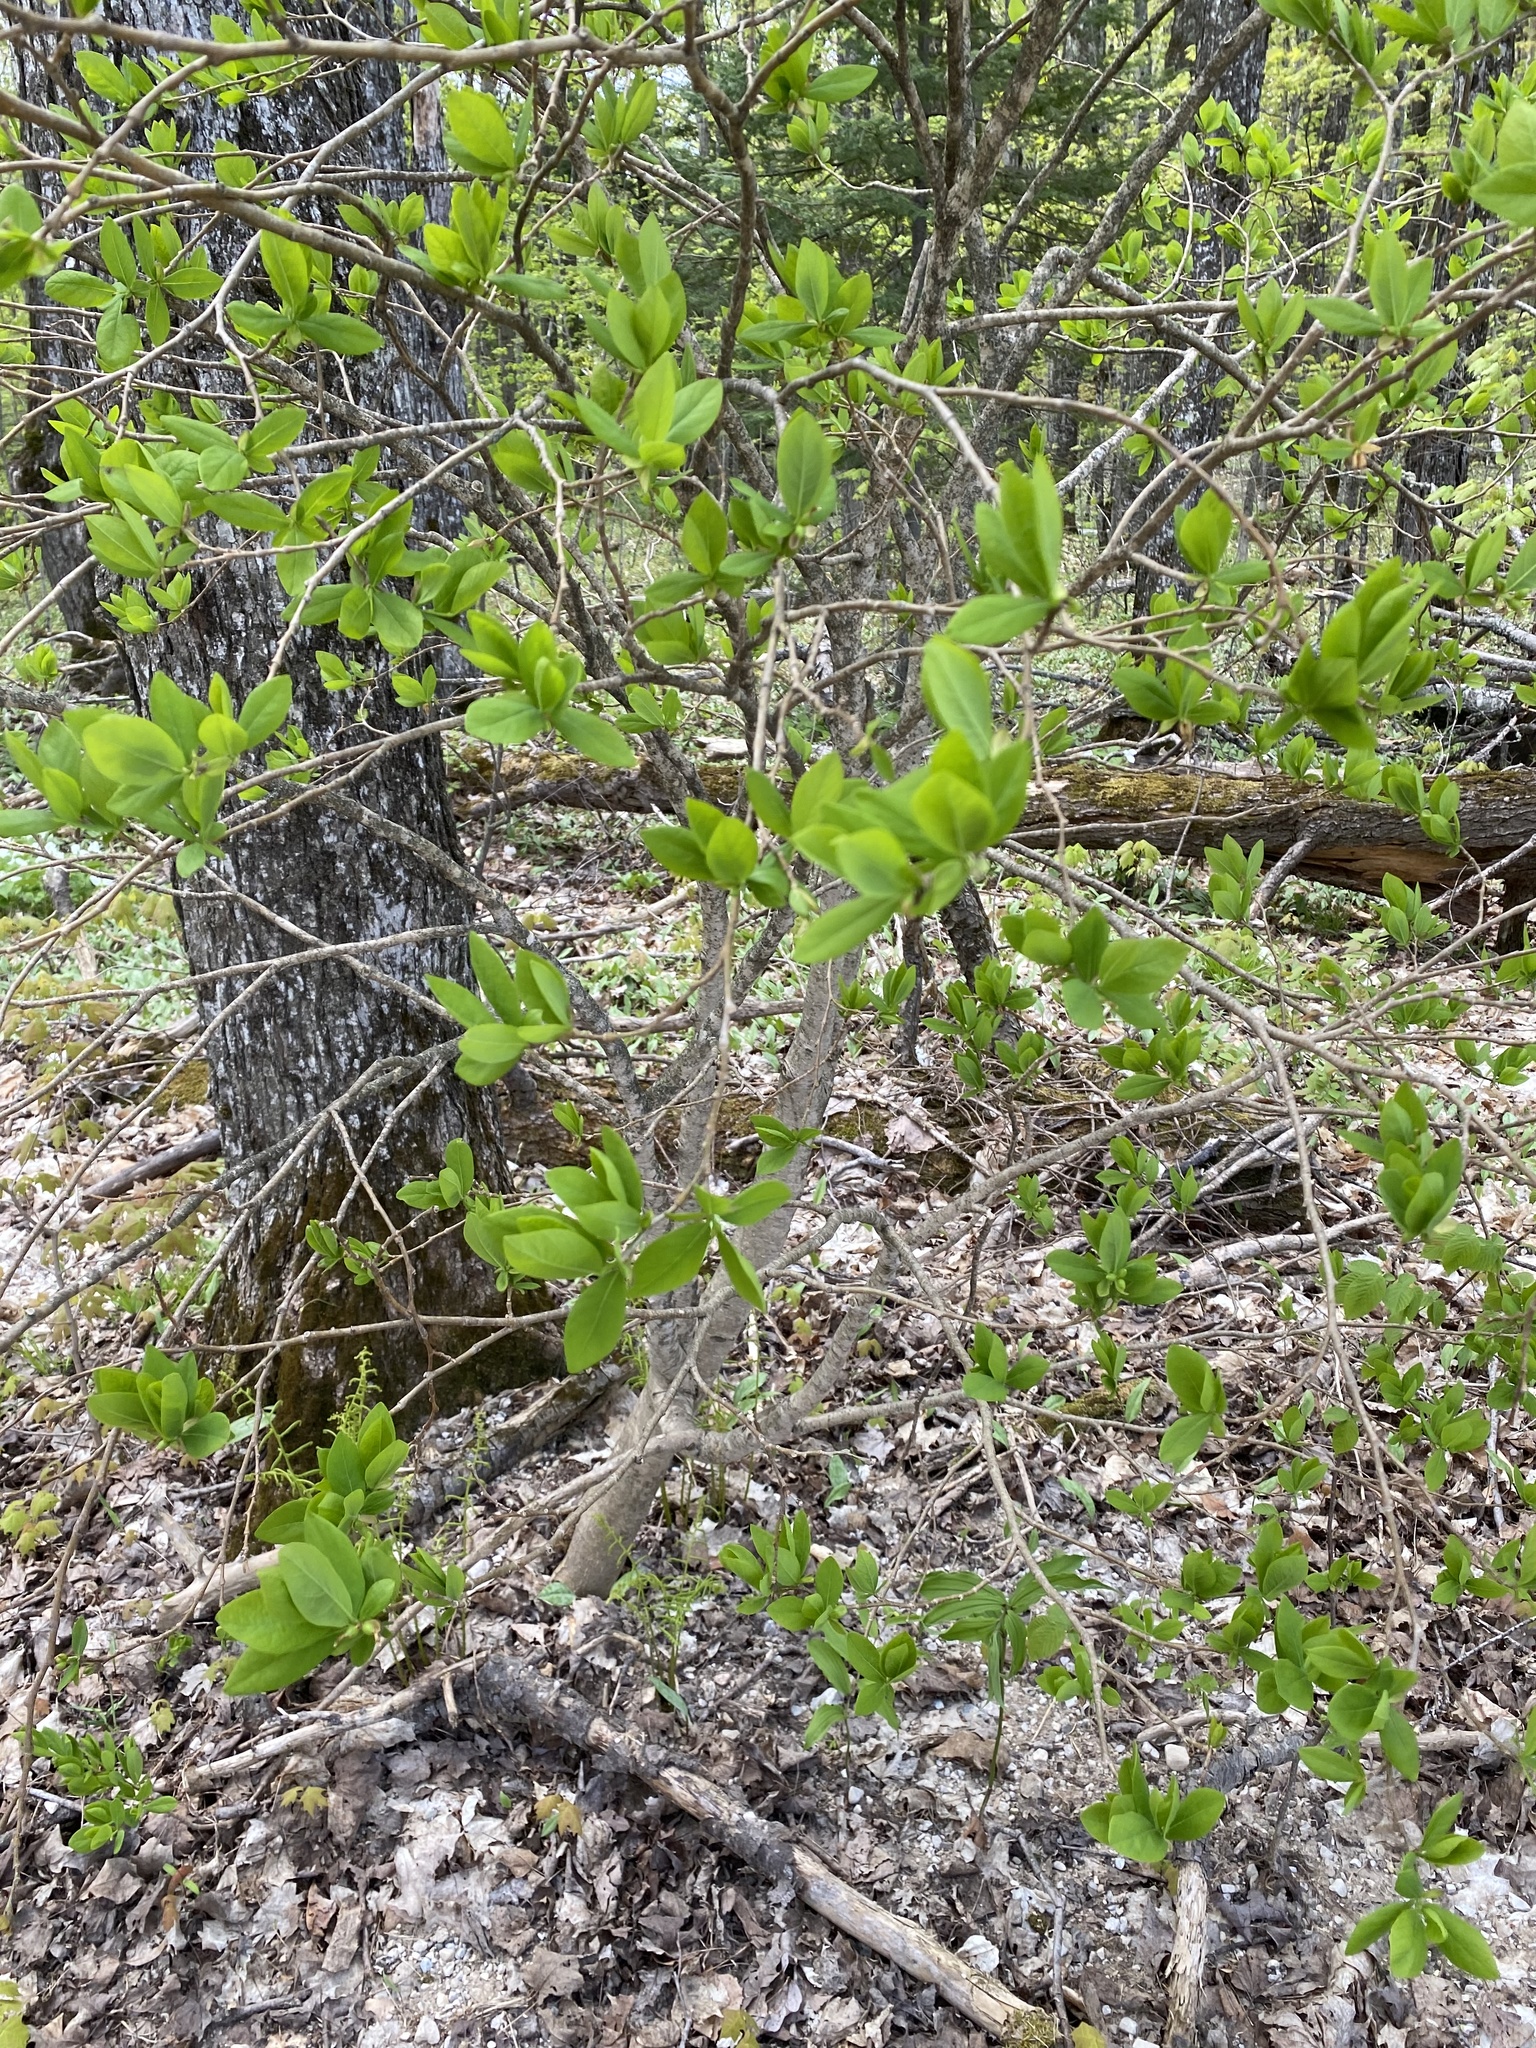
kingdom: Plantae
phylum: Tracheophyta
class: Magnoliopsida
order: Malvales
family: Thymelaeaceae
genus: Dirca
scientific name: Dirca palustris
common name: Leatherwood
